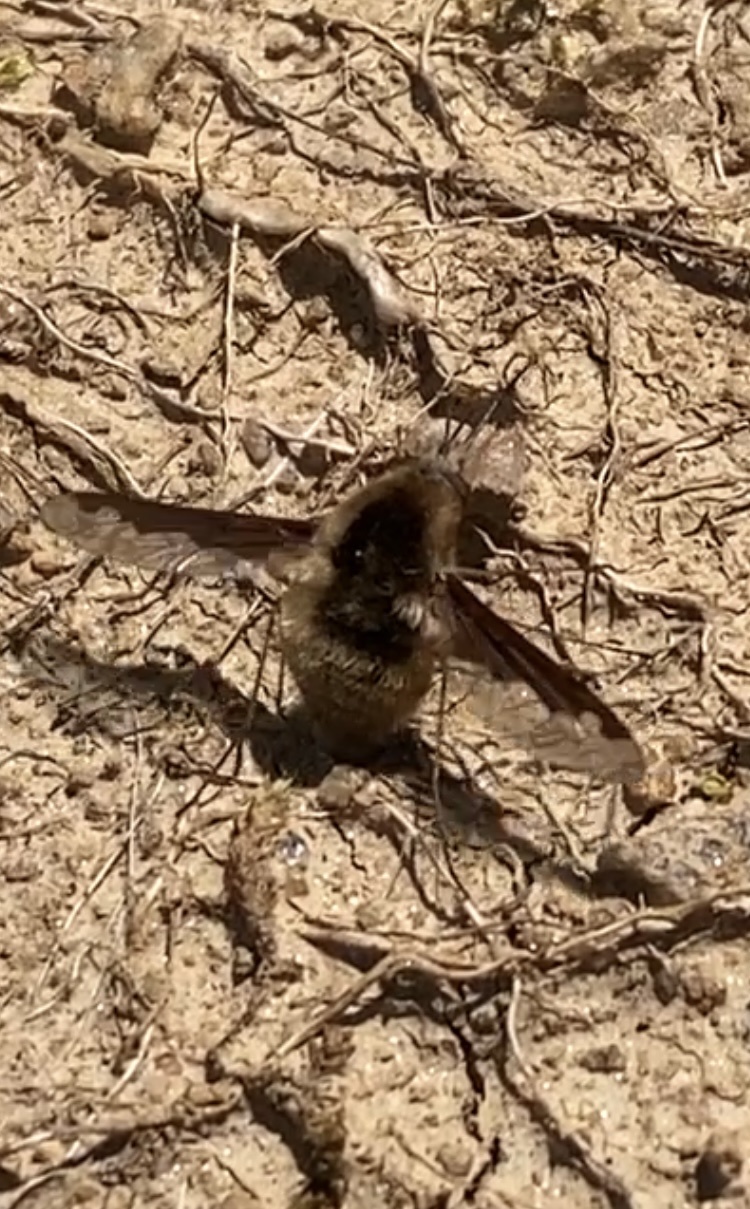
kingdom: Animalia
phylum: Arthropoda
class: Insecta
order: Diptera
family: Bombyliidae
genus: Bombylius
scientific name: Bombylius major
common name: Bee fly
